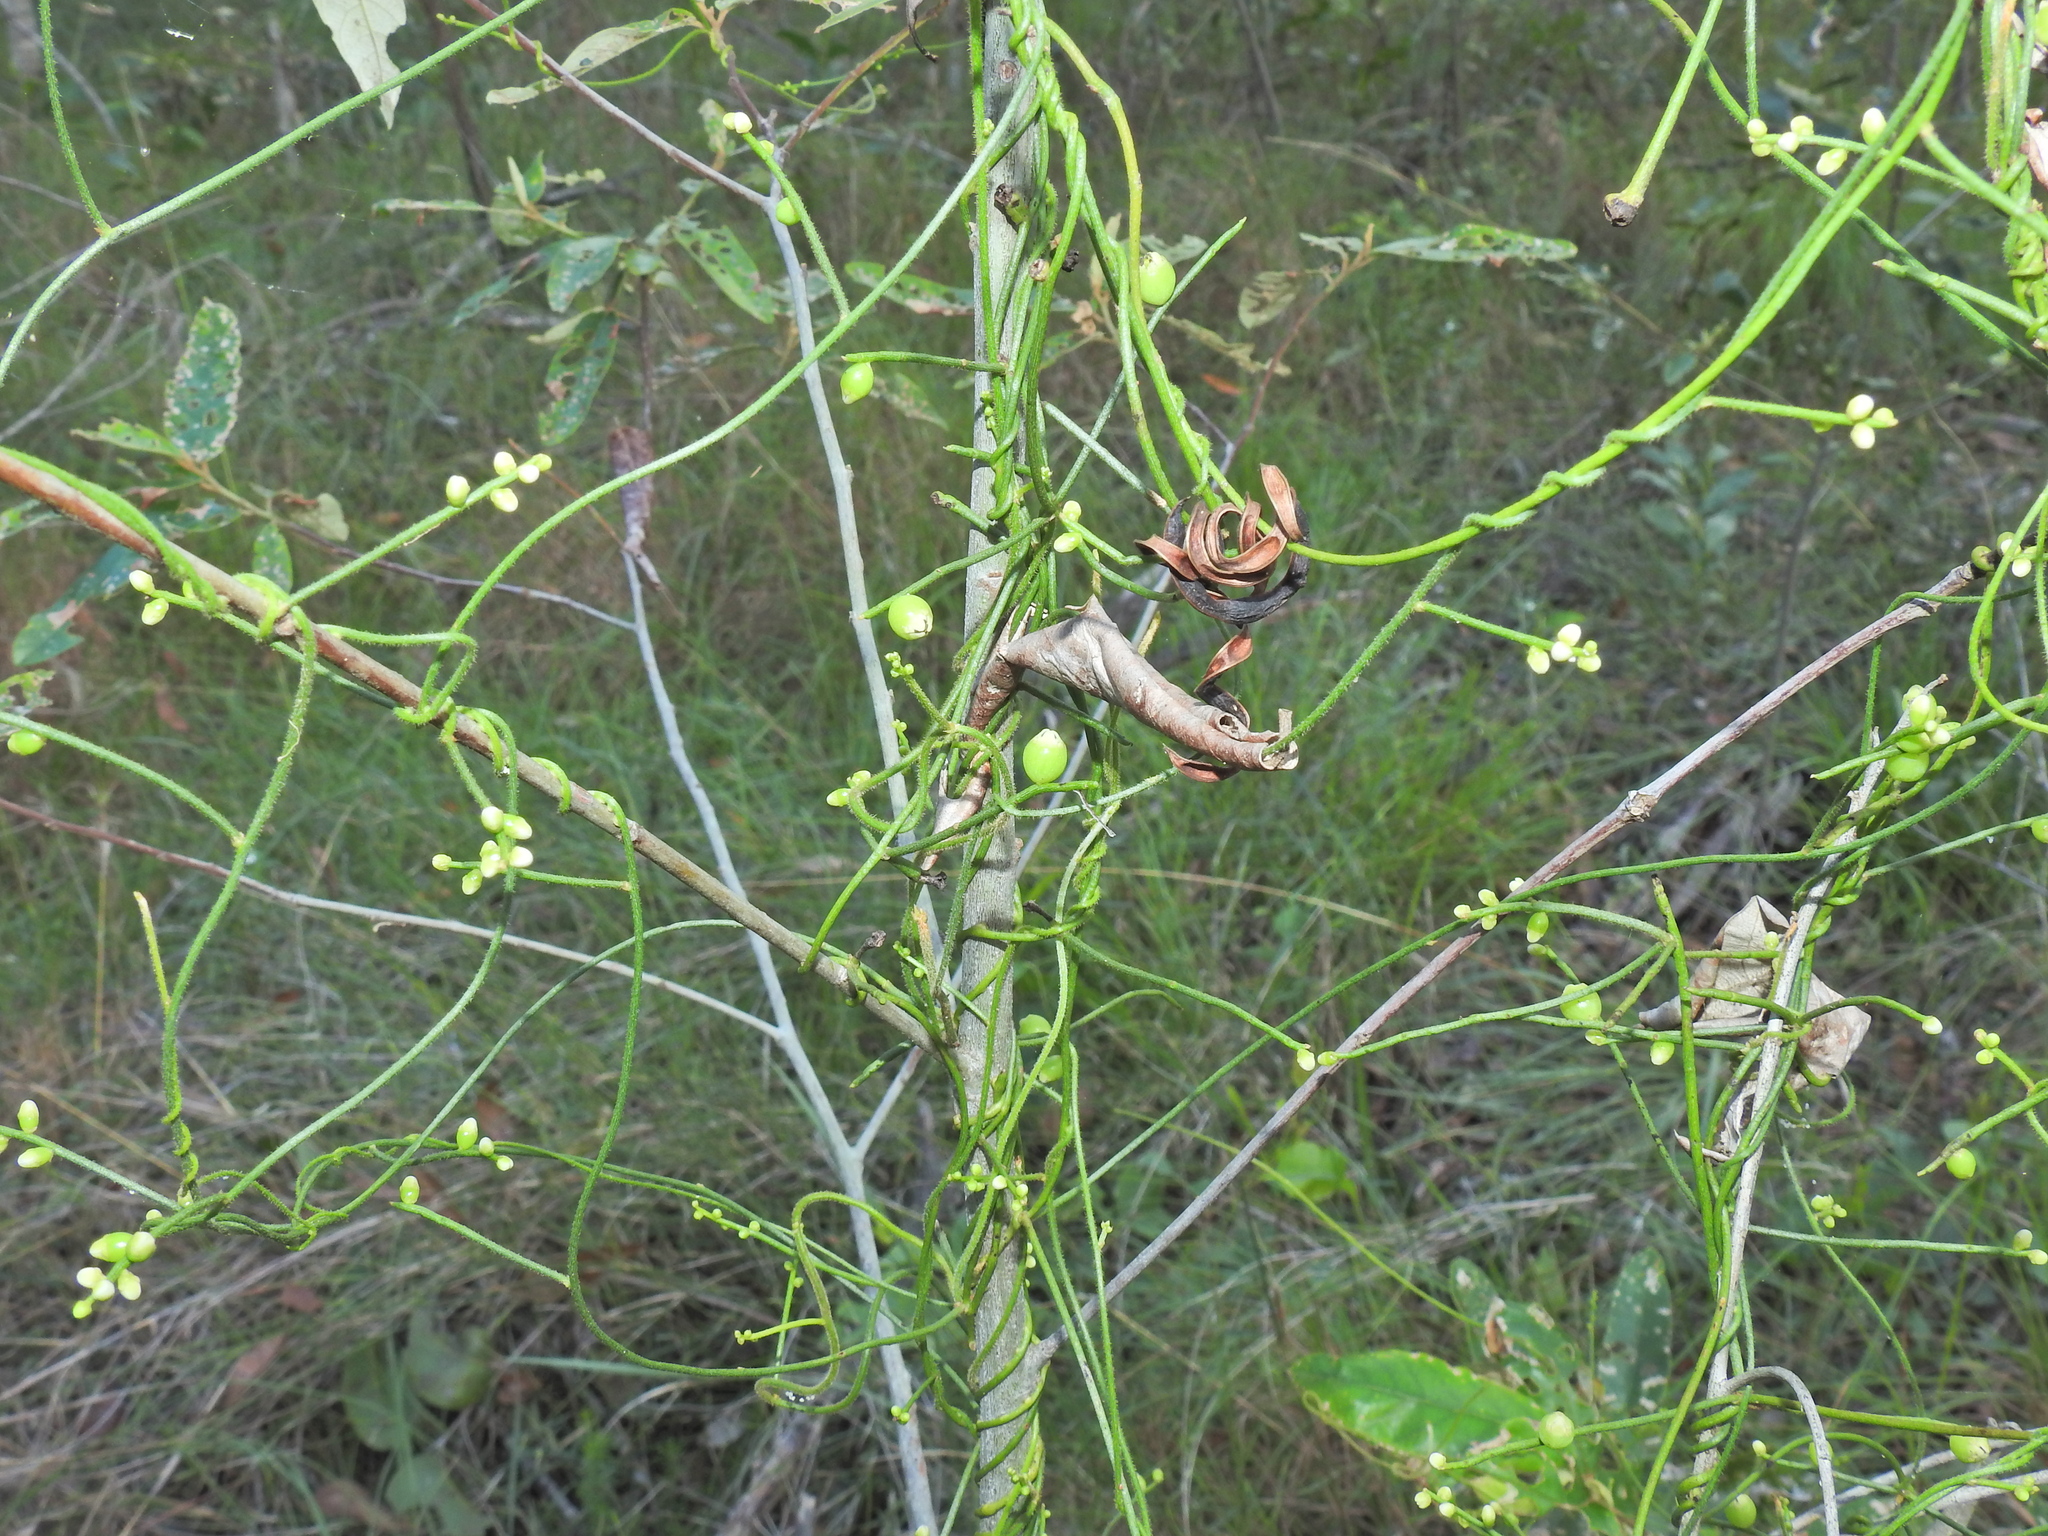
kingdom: Plantae
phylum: Tracheophyta
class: Magnoliopsida
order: Laurales
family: Lauraceae
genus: Cassytha
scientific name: Cassytha filiformis
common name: Dodder-laurel
